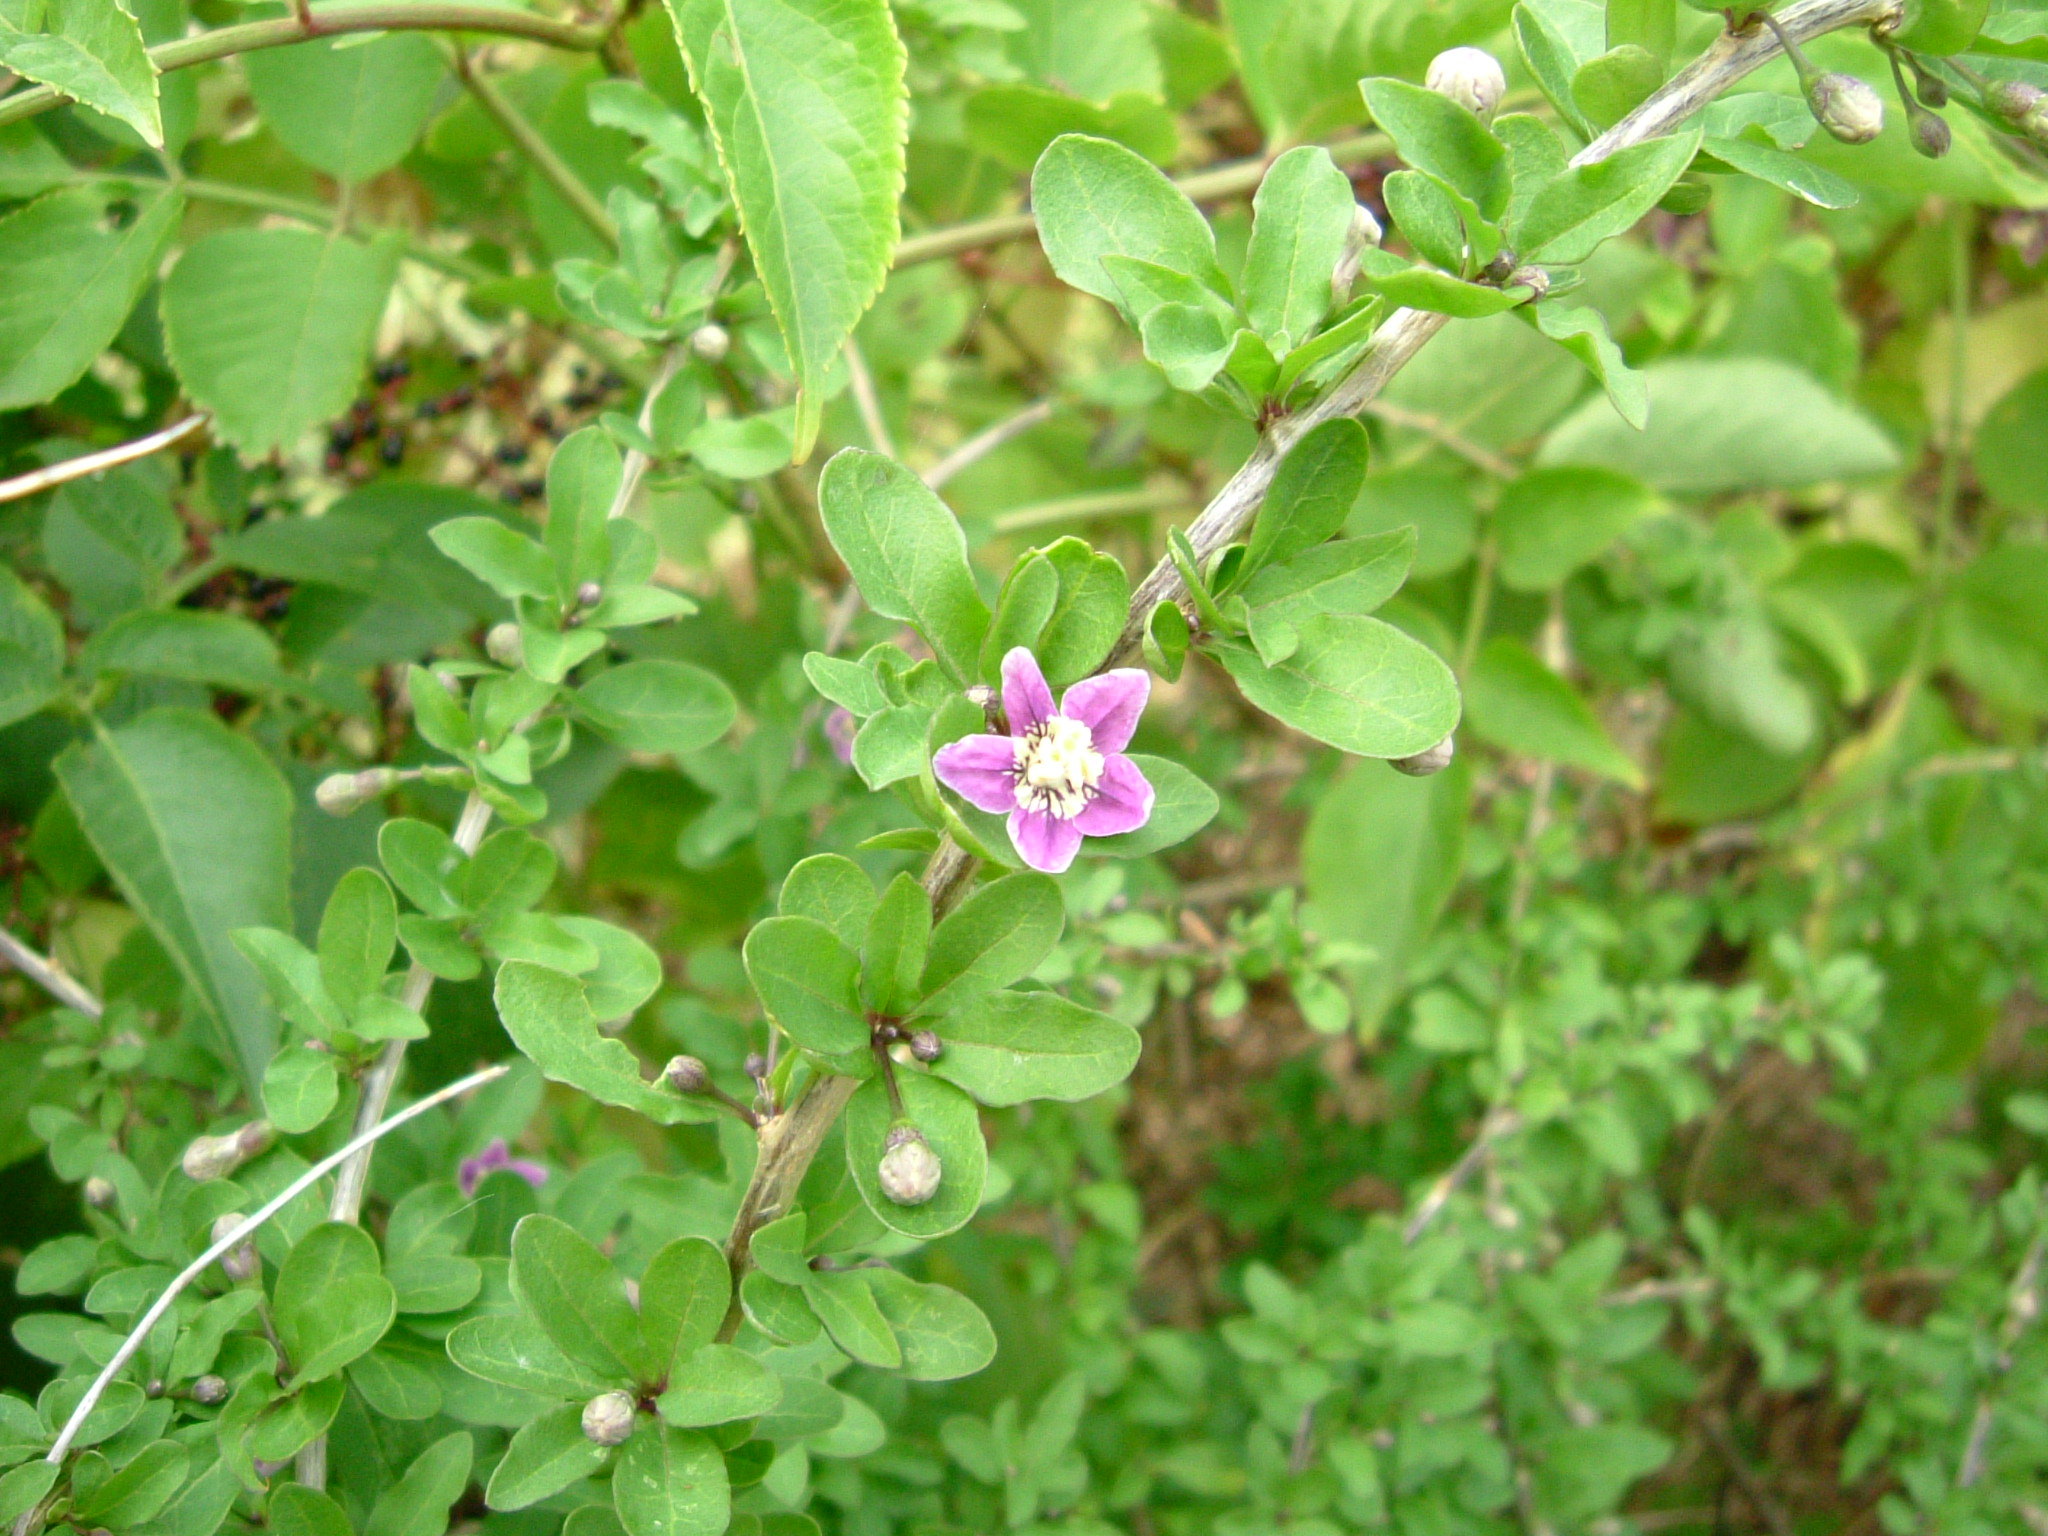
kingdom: Plantae
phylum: Tracheophyta
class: Magnoliopsida
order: Solanales
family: Solanaceae
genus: Lycium
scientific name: Lycium barbarum
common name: Duke of argyll's teaplant
